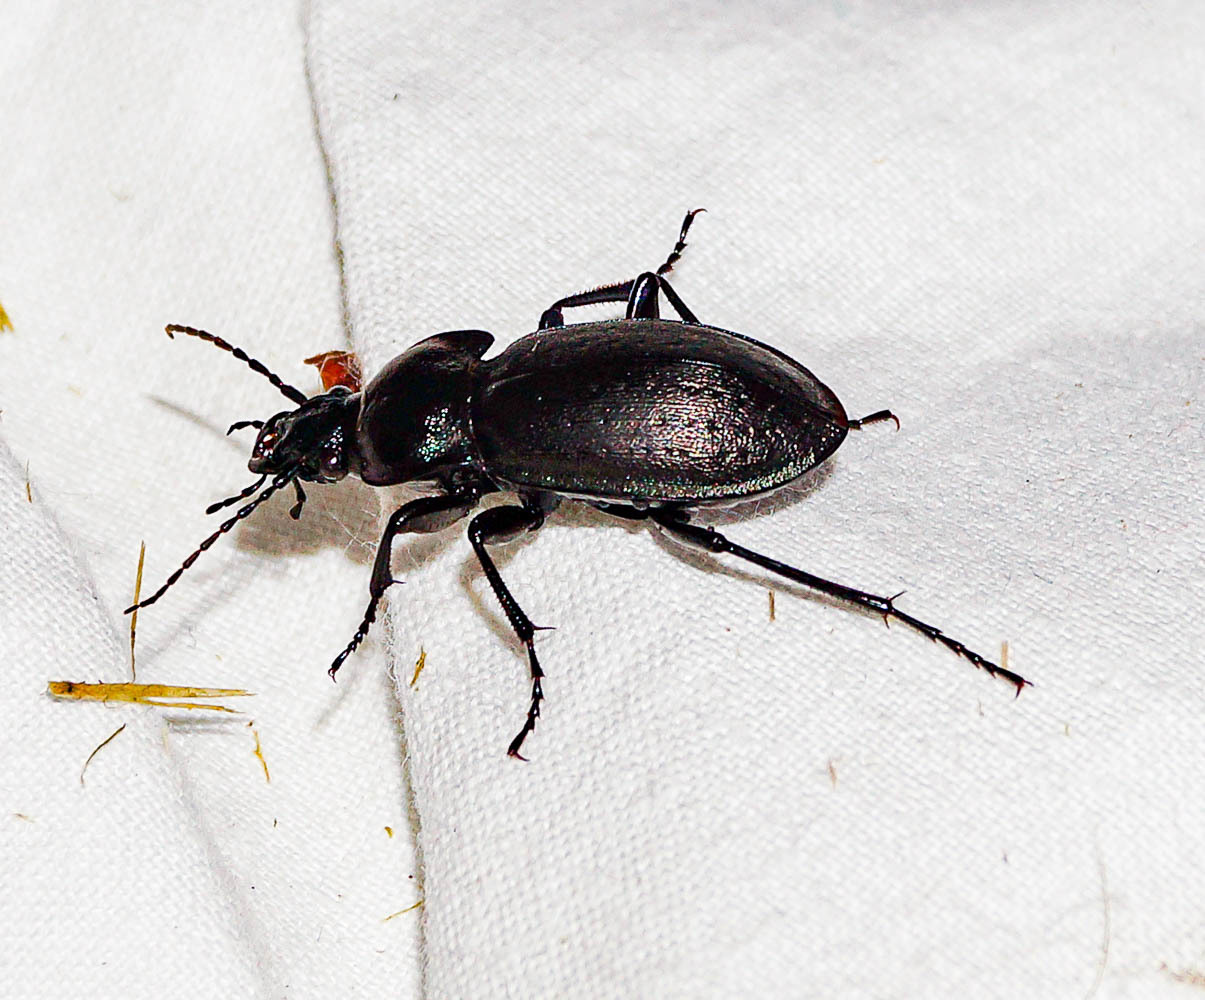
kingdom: Animalia
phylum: Arthropoda
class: Insecta
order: Coleoptera
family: Carabidae
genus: Carabus
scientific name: Carabus nemoralis
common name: European ground beetle
